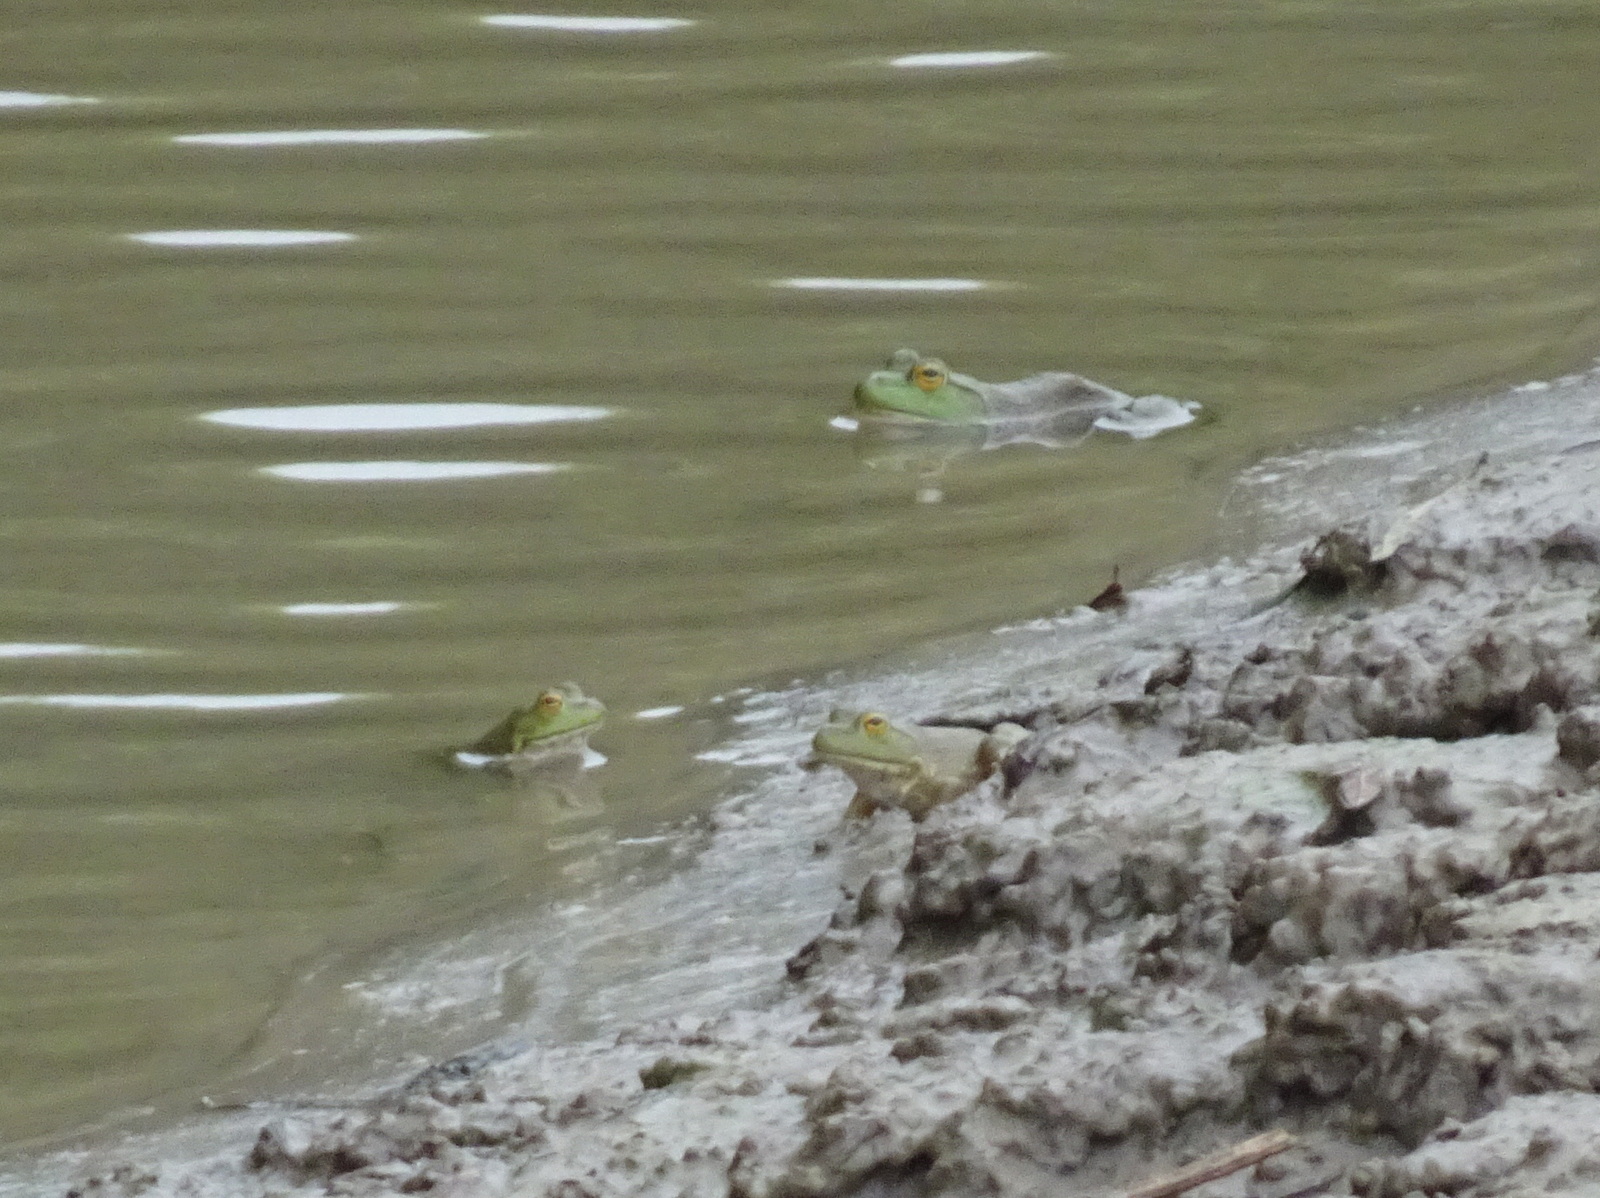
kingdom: Animalia
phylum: Chordata
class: Amphibia
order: Anura
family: Ranidae
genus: Lithobates
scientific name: Lithobates catesbeianus
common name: American bullfrog
